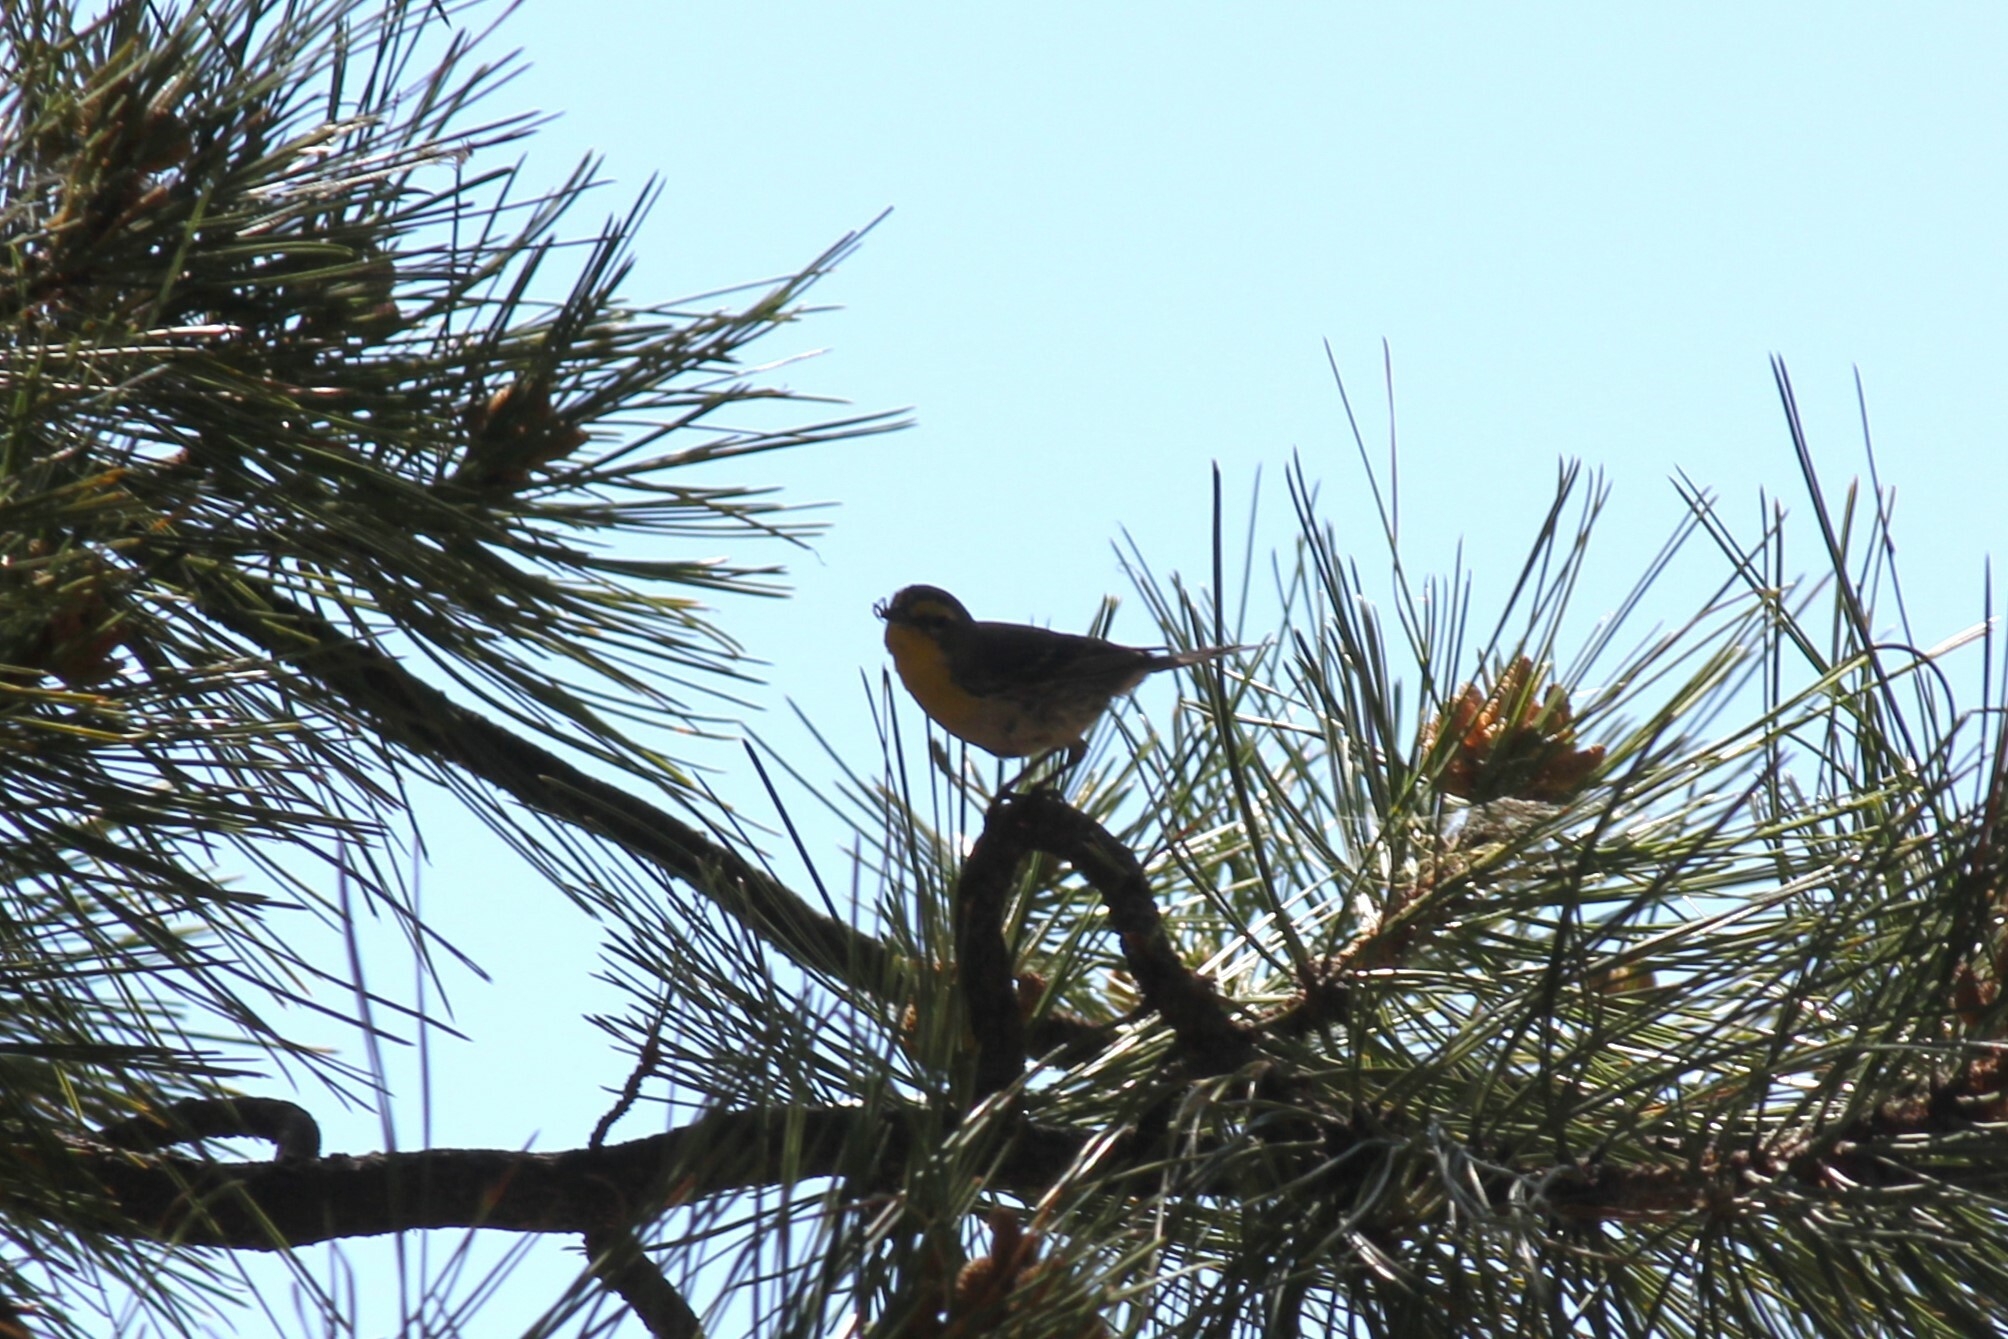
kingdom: Animalia
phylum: Chordata
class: Aves
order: Passeriformes
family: Parulidae
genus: Setophaga
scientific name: Setophaga graciae
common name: Grace's warbler
